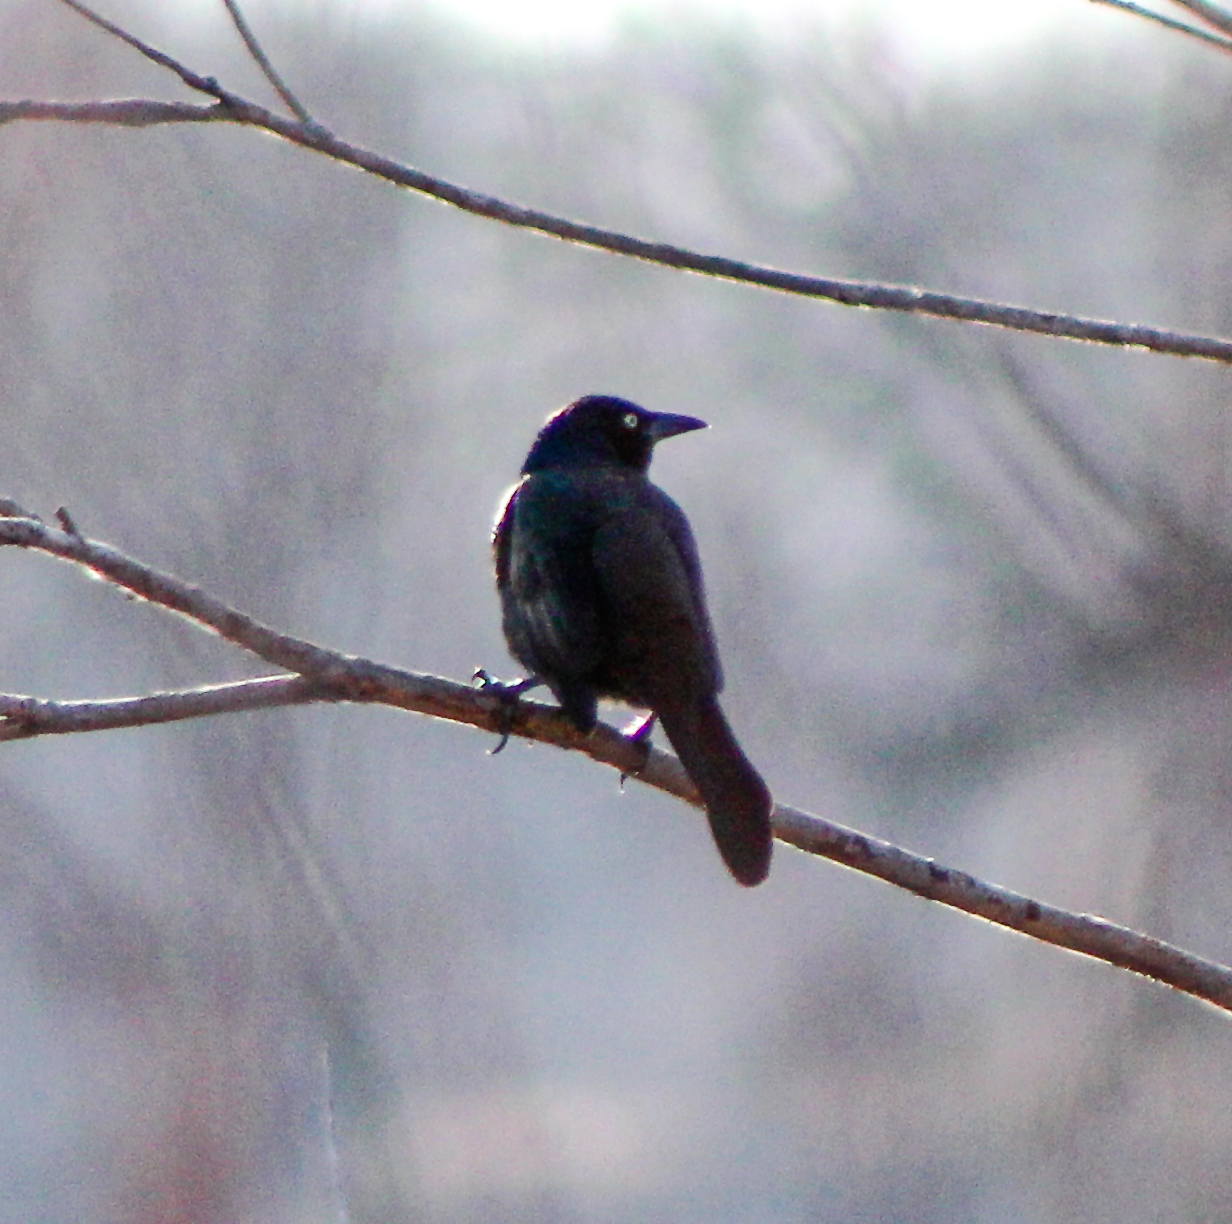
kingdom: Animalia
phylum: Chordata
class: Aves
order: Passeriformes
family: Icteridae
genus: Quiscalus
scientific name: Quiscalus quiscula
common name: Common grackle
